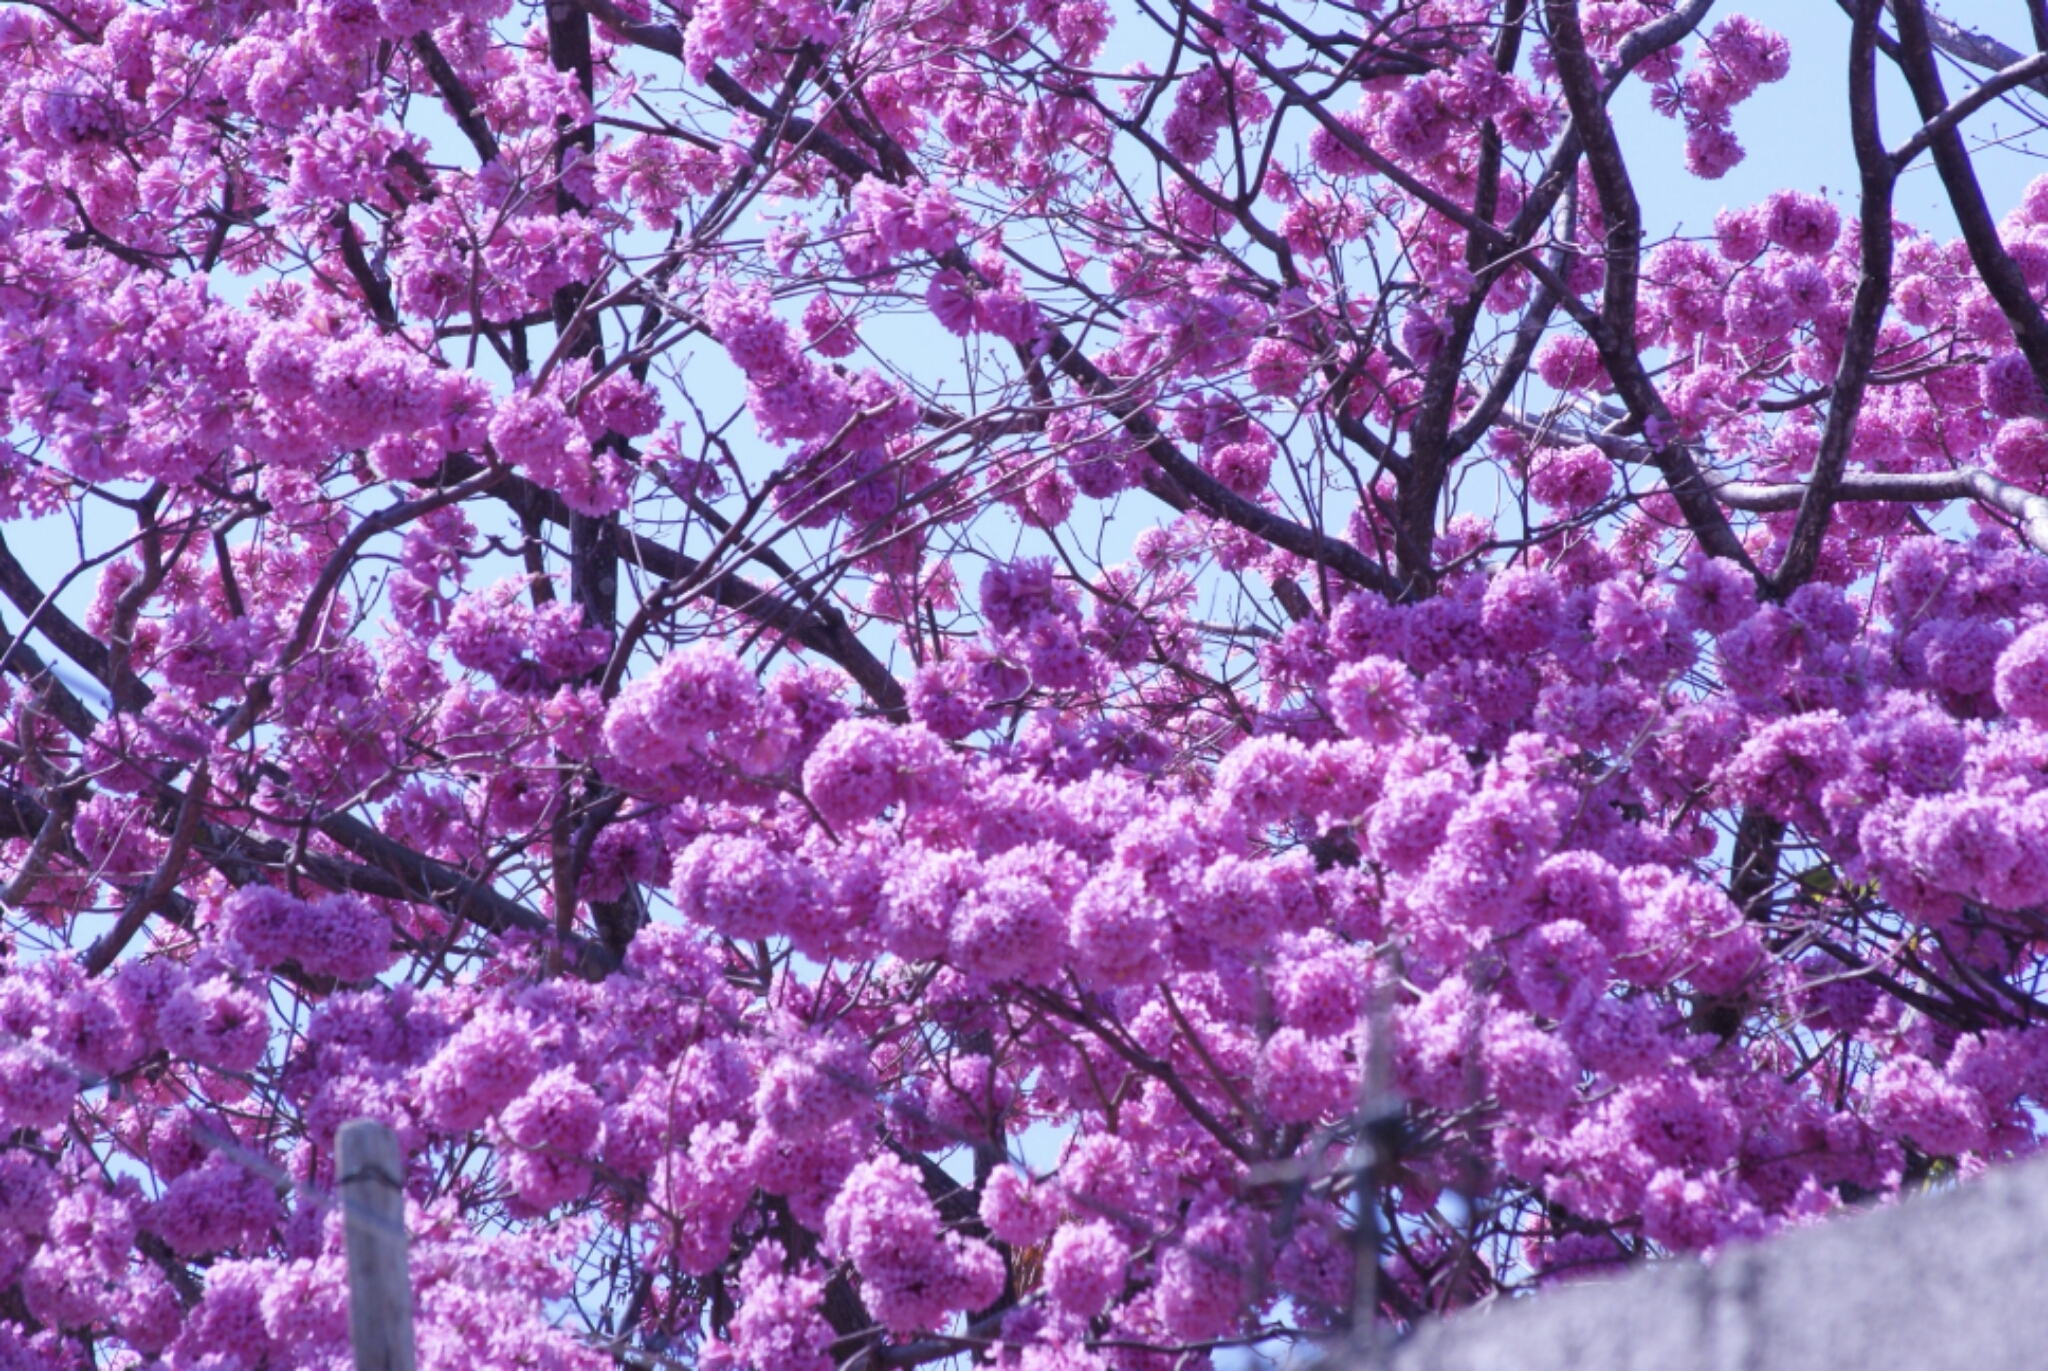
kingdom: Plantae
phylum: Tracheophyta
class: Magnoliopsida
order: Lamiales
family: Bignoniaceae
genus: Handroanthus
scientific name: Handroanthus impetiginosum
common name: Pink trumpet tree
